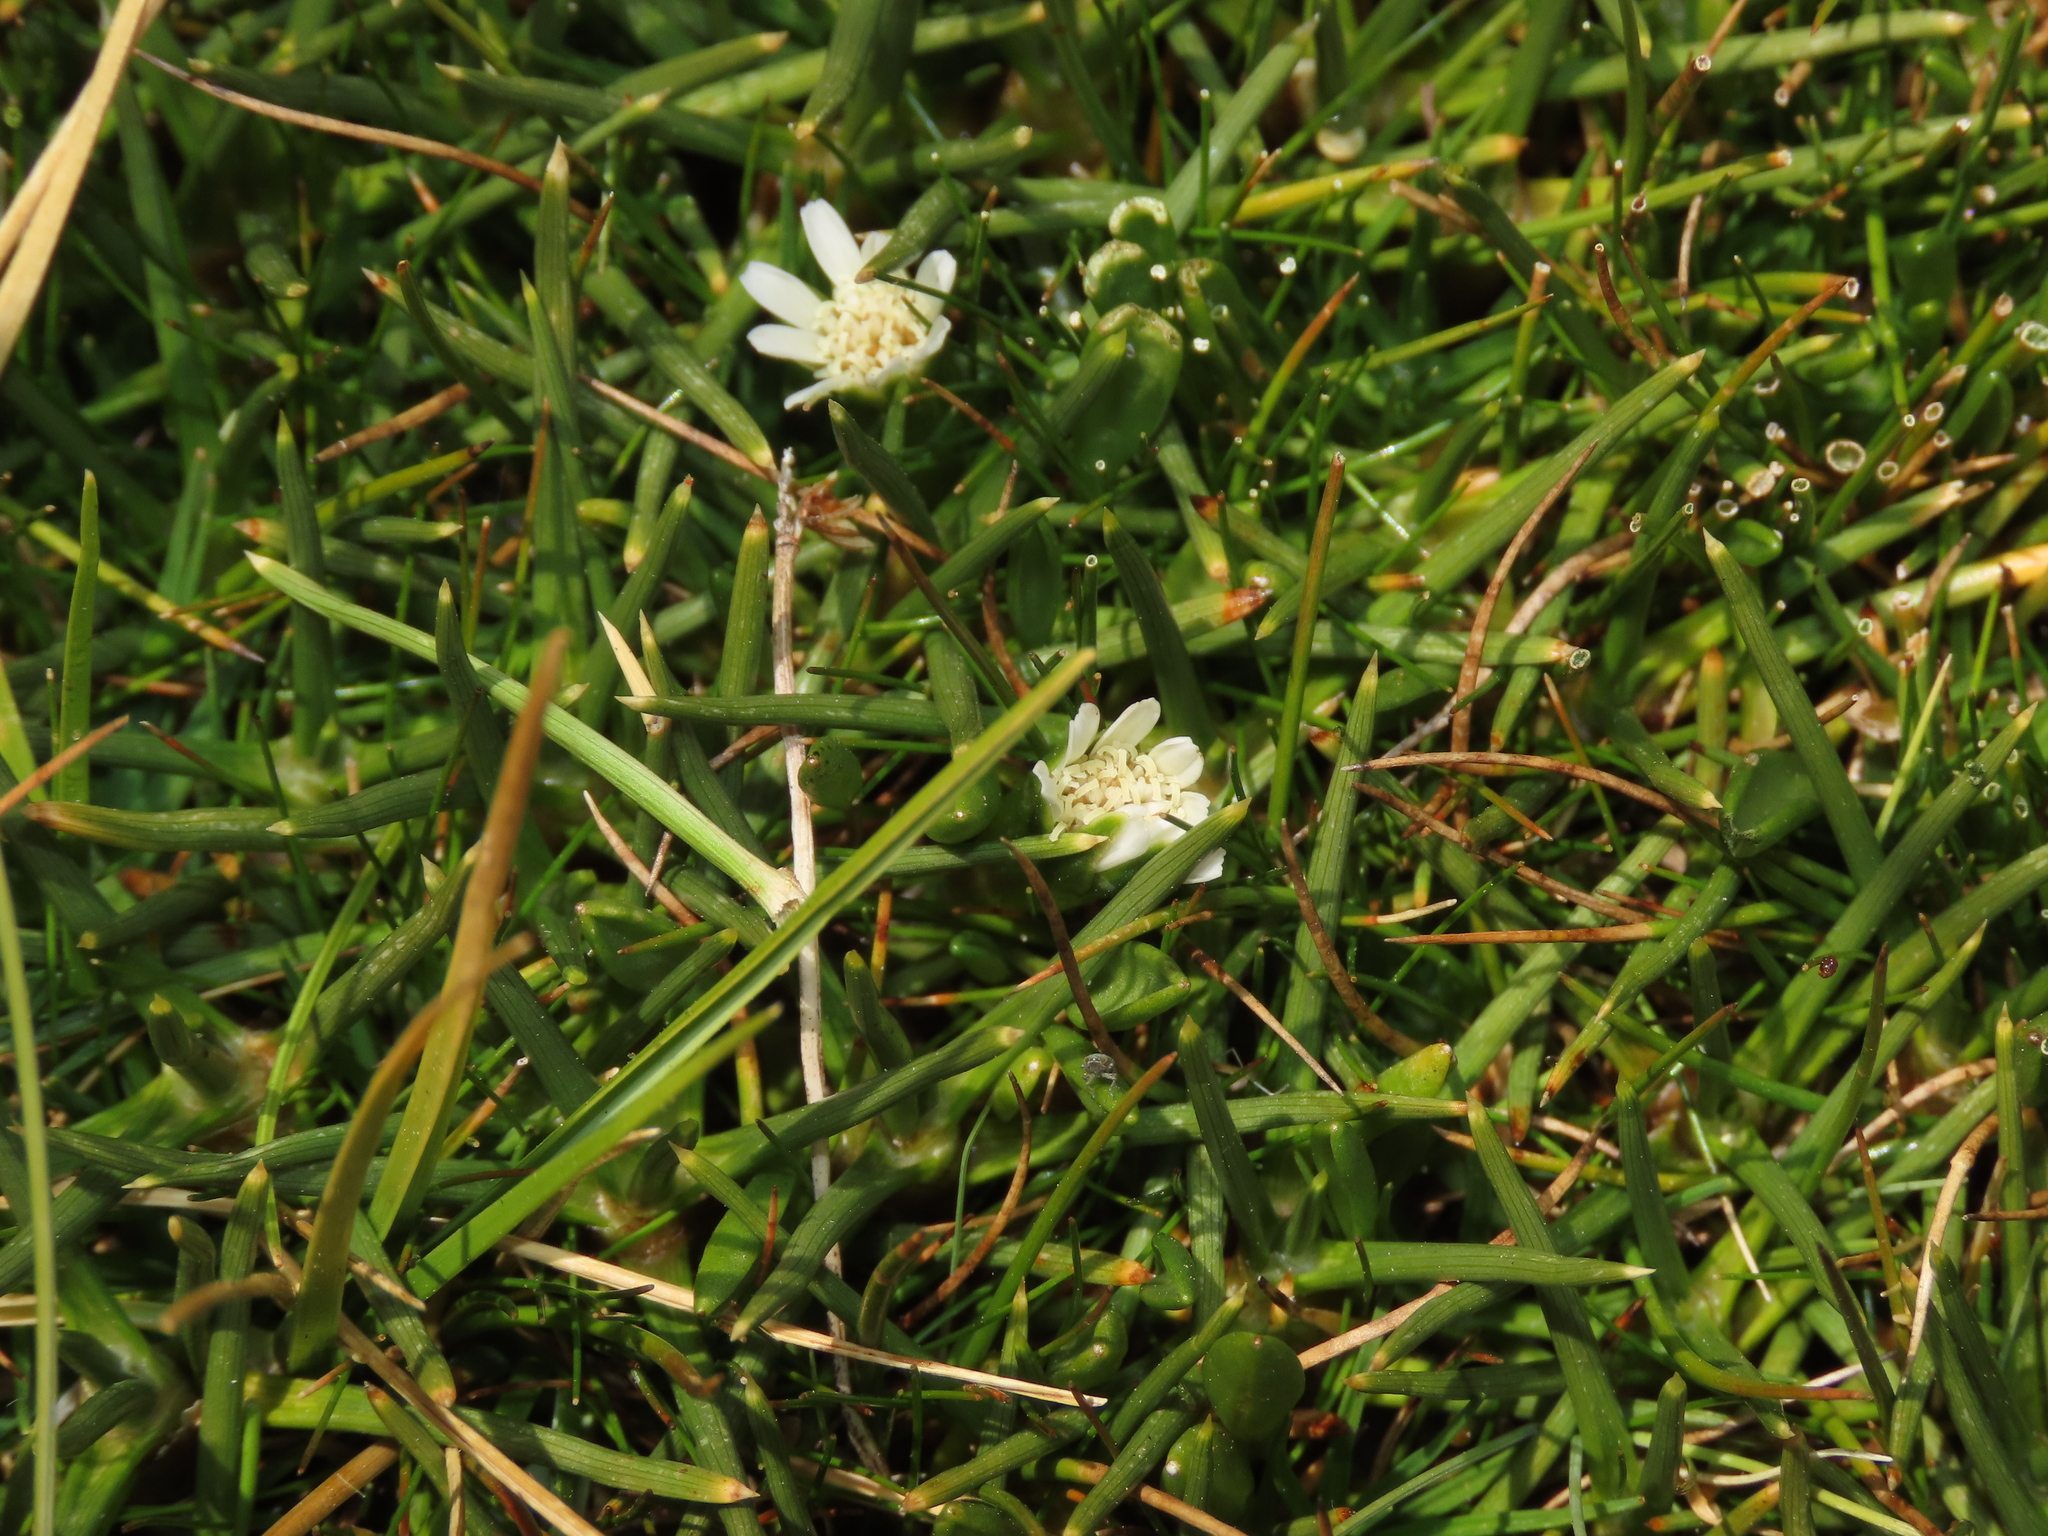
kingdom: Plantae
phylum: Tracheophyta
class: Magnoliopsida
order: Asterales
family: Asteraceae
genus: Rockhausenia
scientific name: Rockhausenia spathulata
